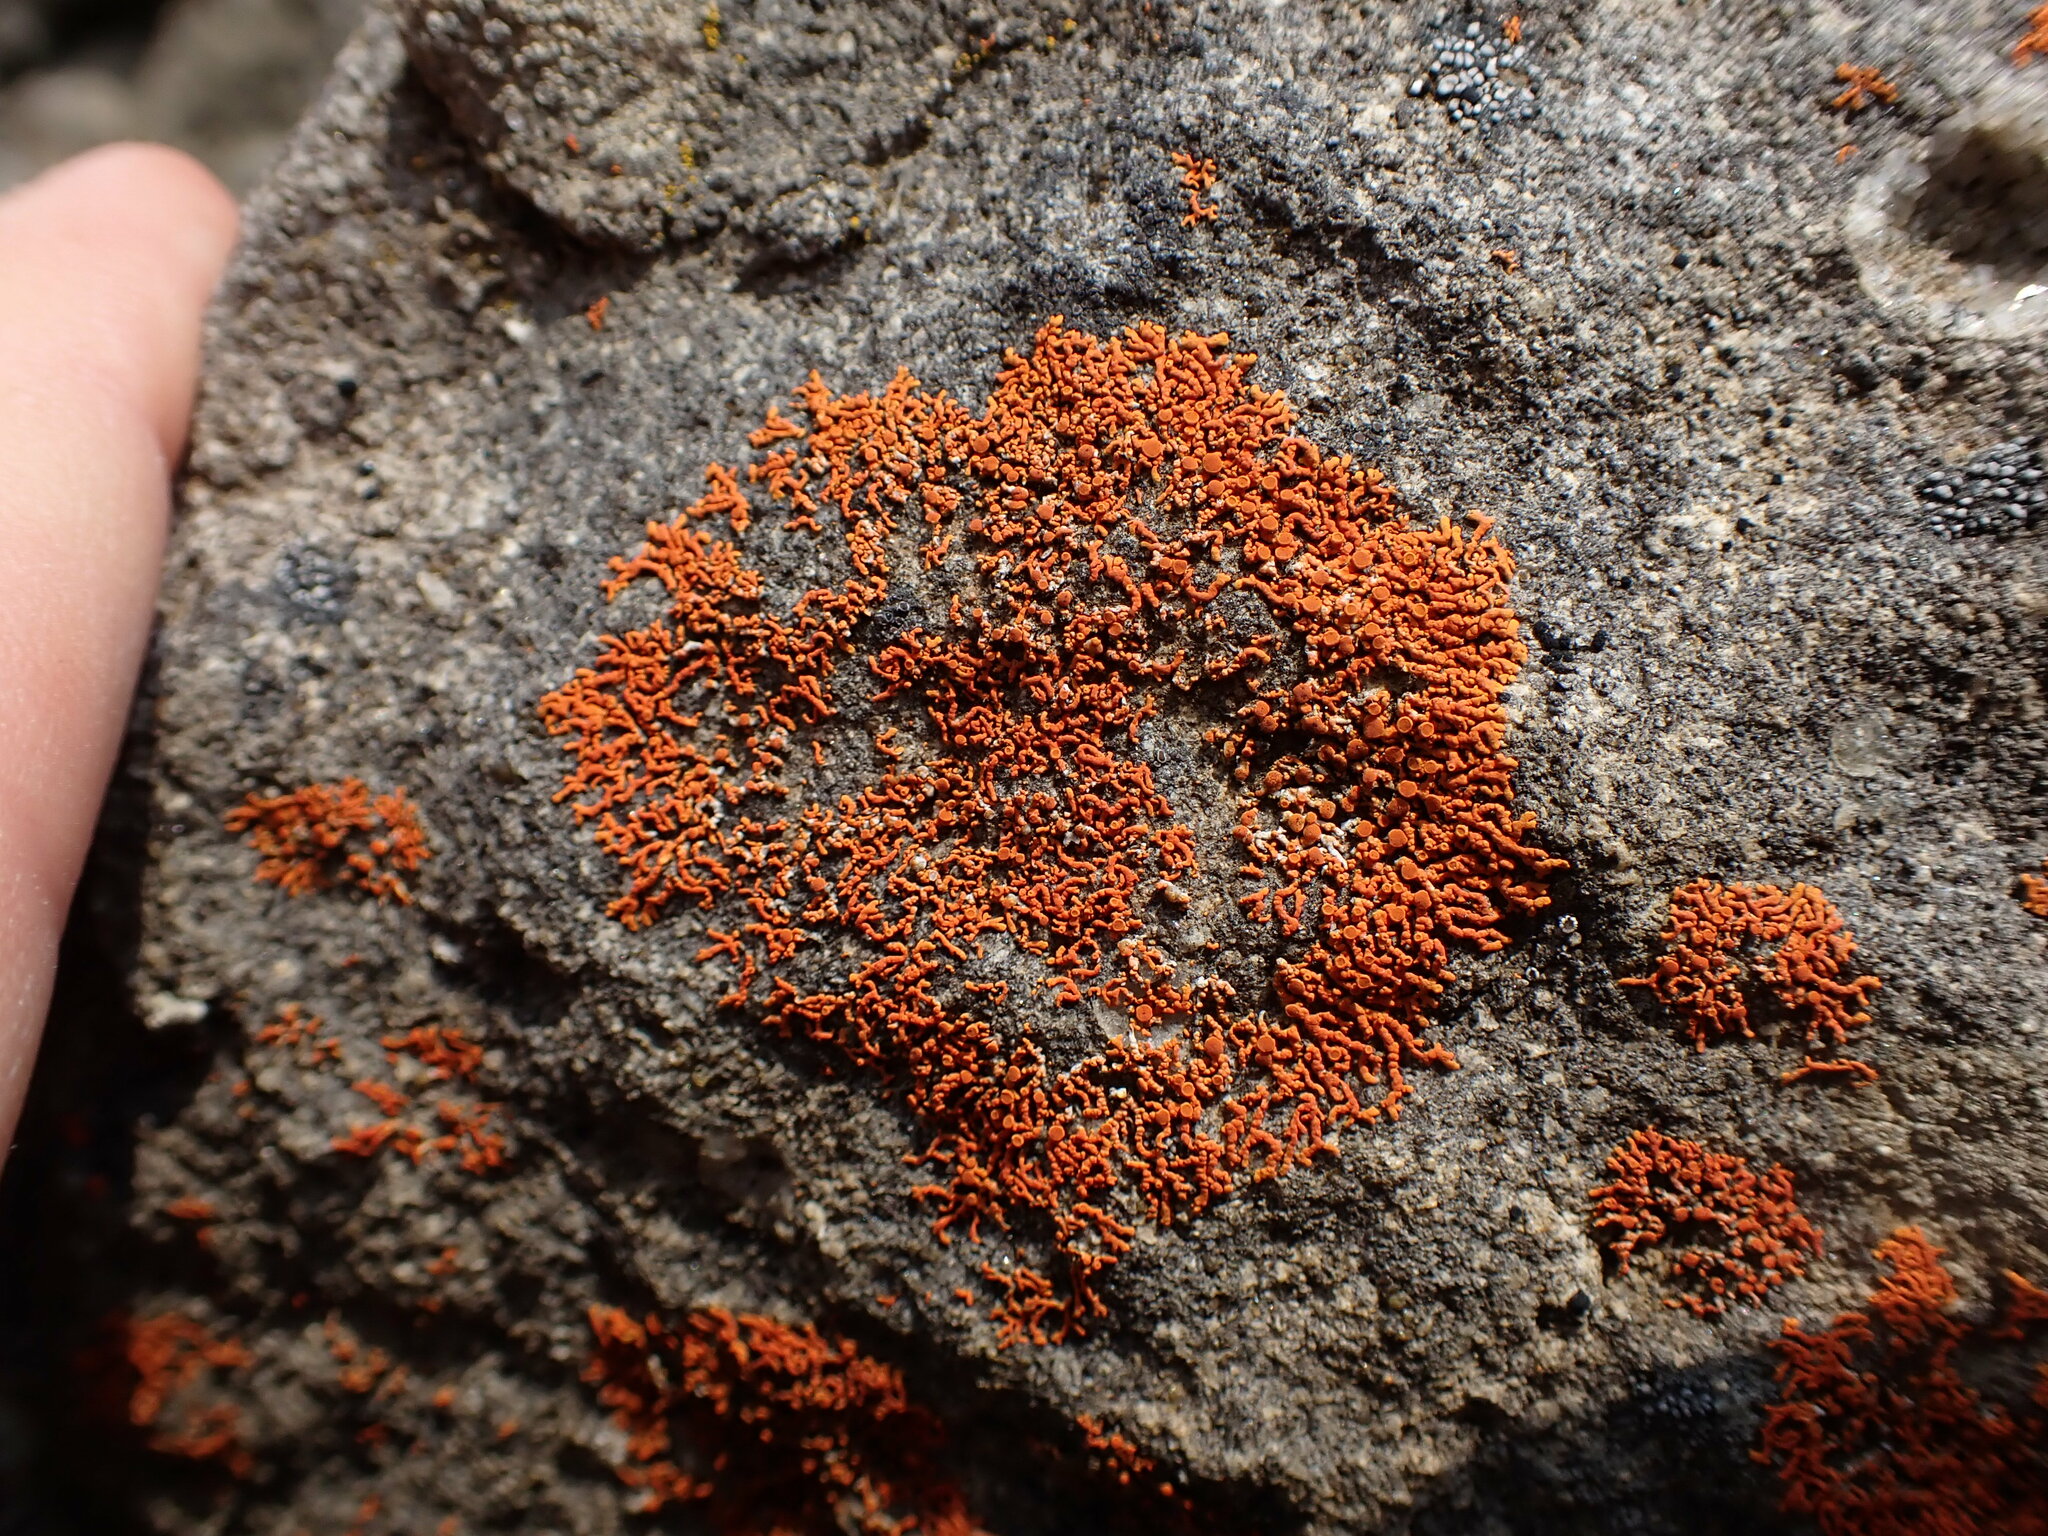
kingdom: Fungi
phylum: Ascomycota
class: Lecanoromycetes
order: Teloschistales
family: Teloschistaceae
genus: Xanthoria
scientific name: Xanthoria elegans
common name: Elegant sunburst lichen
